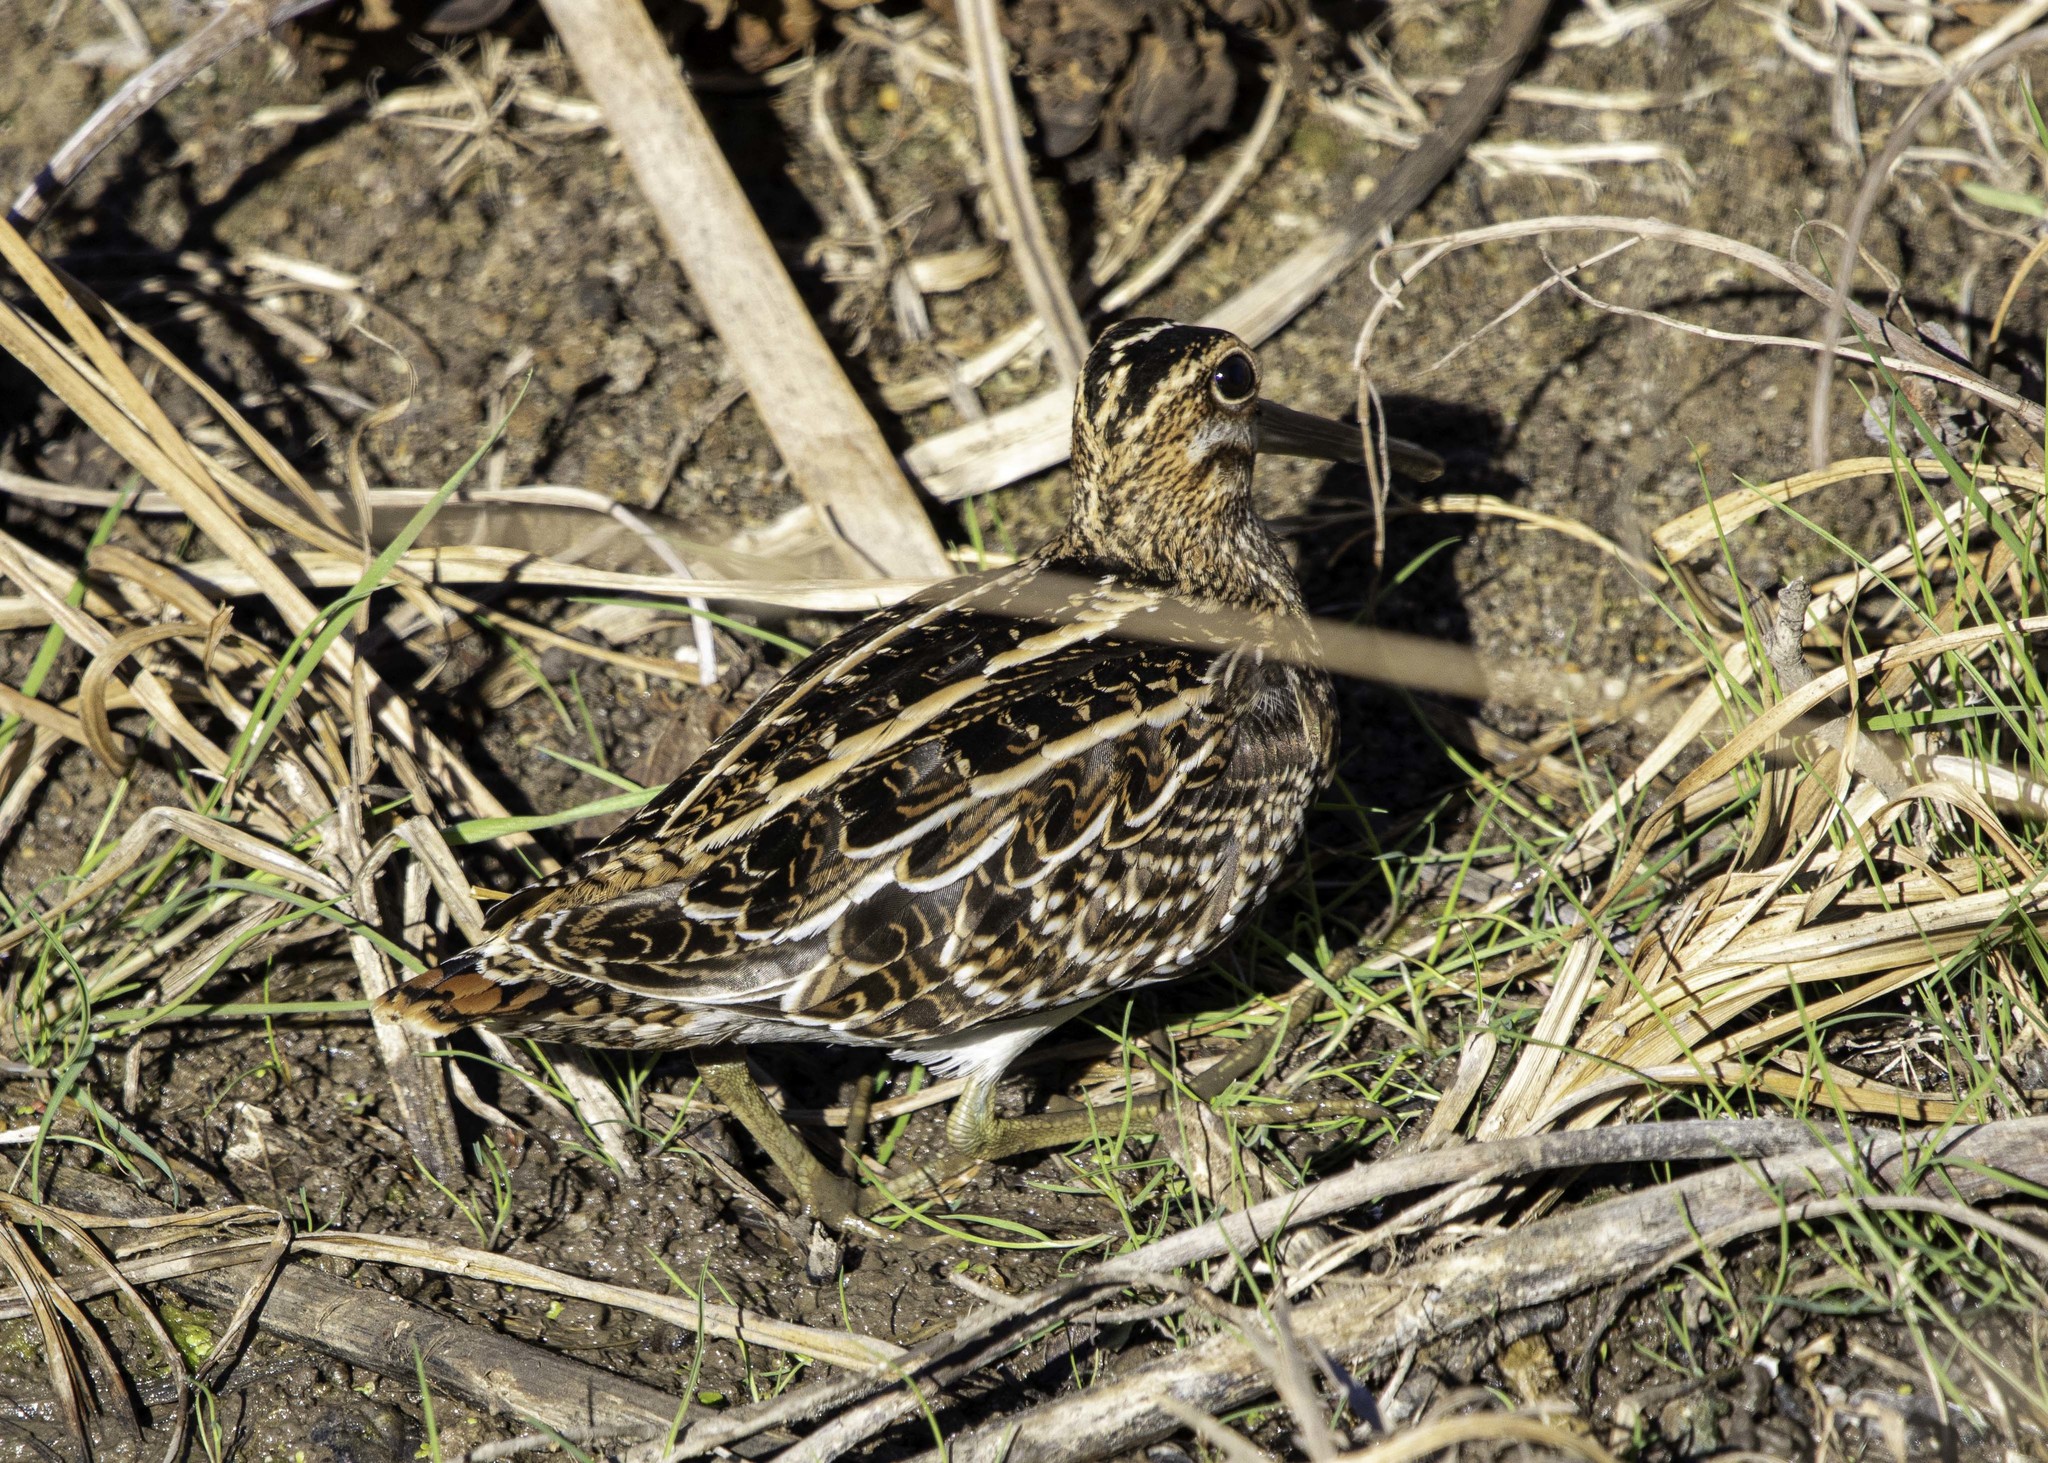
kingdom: Animalia
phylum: Chordata
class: Aves
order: Charadriiformes
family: Scolopacidae
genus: Gallinago
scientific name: Gallinago delicata
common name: Wilson's snipe
